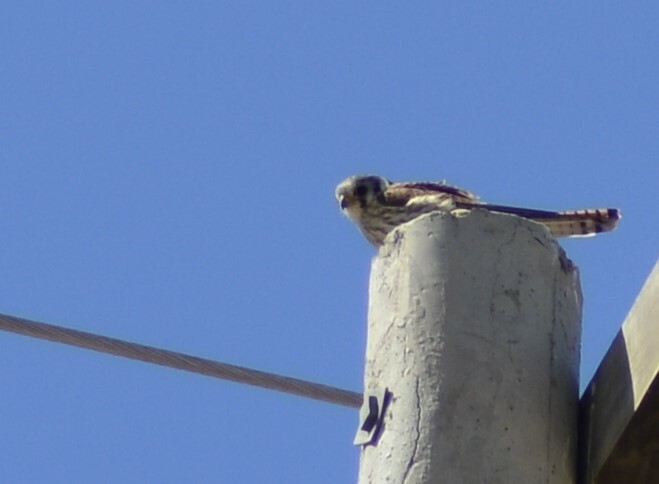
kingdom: Animalia
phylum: Chordata
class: Aves
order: Falconiformes
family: Falconidae
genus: Falco
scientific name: Falco sparverius
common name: American kestrel
